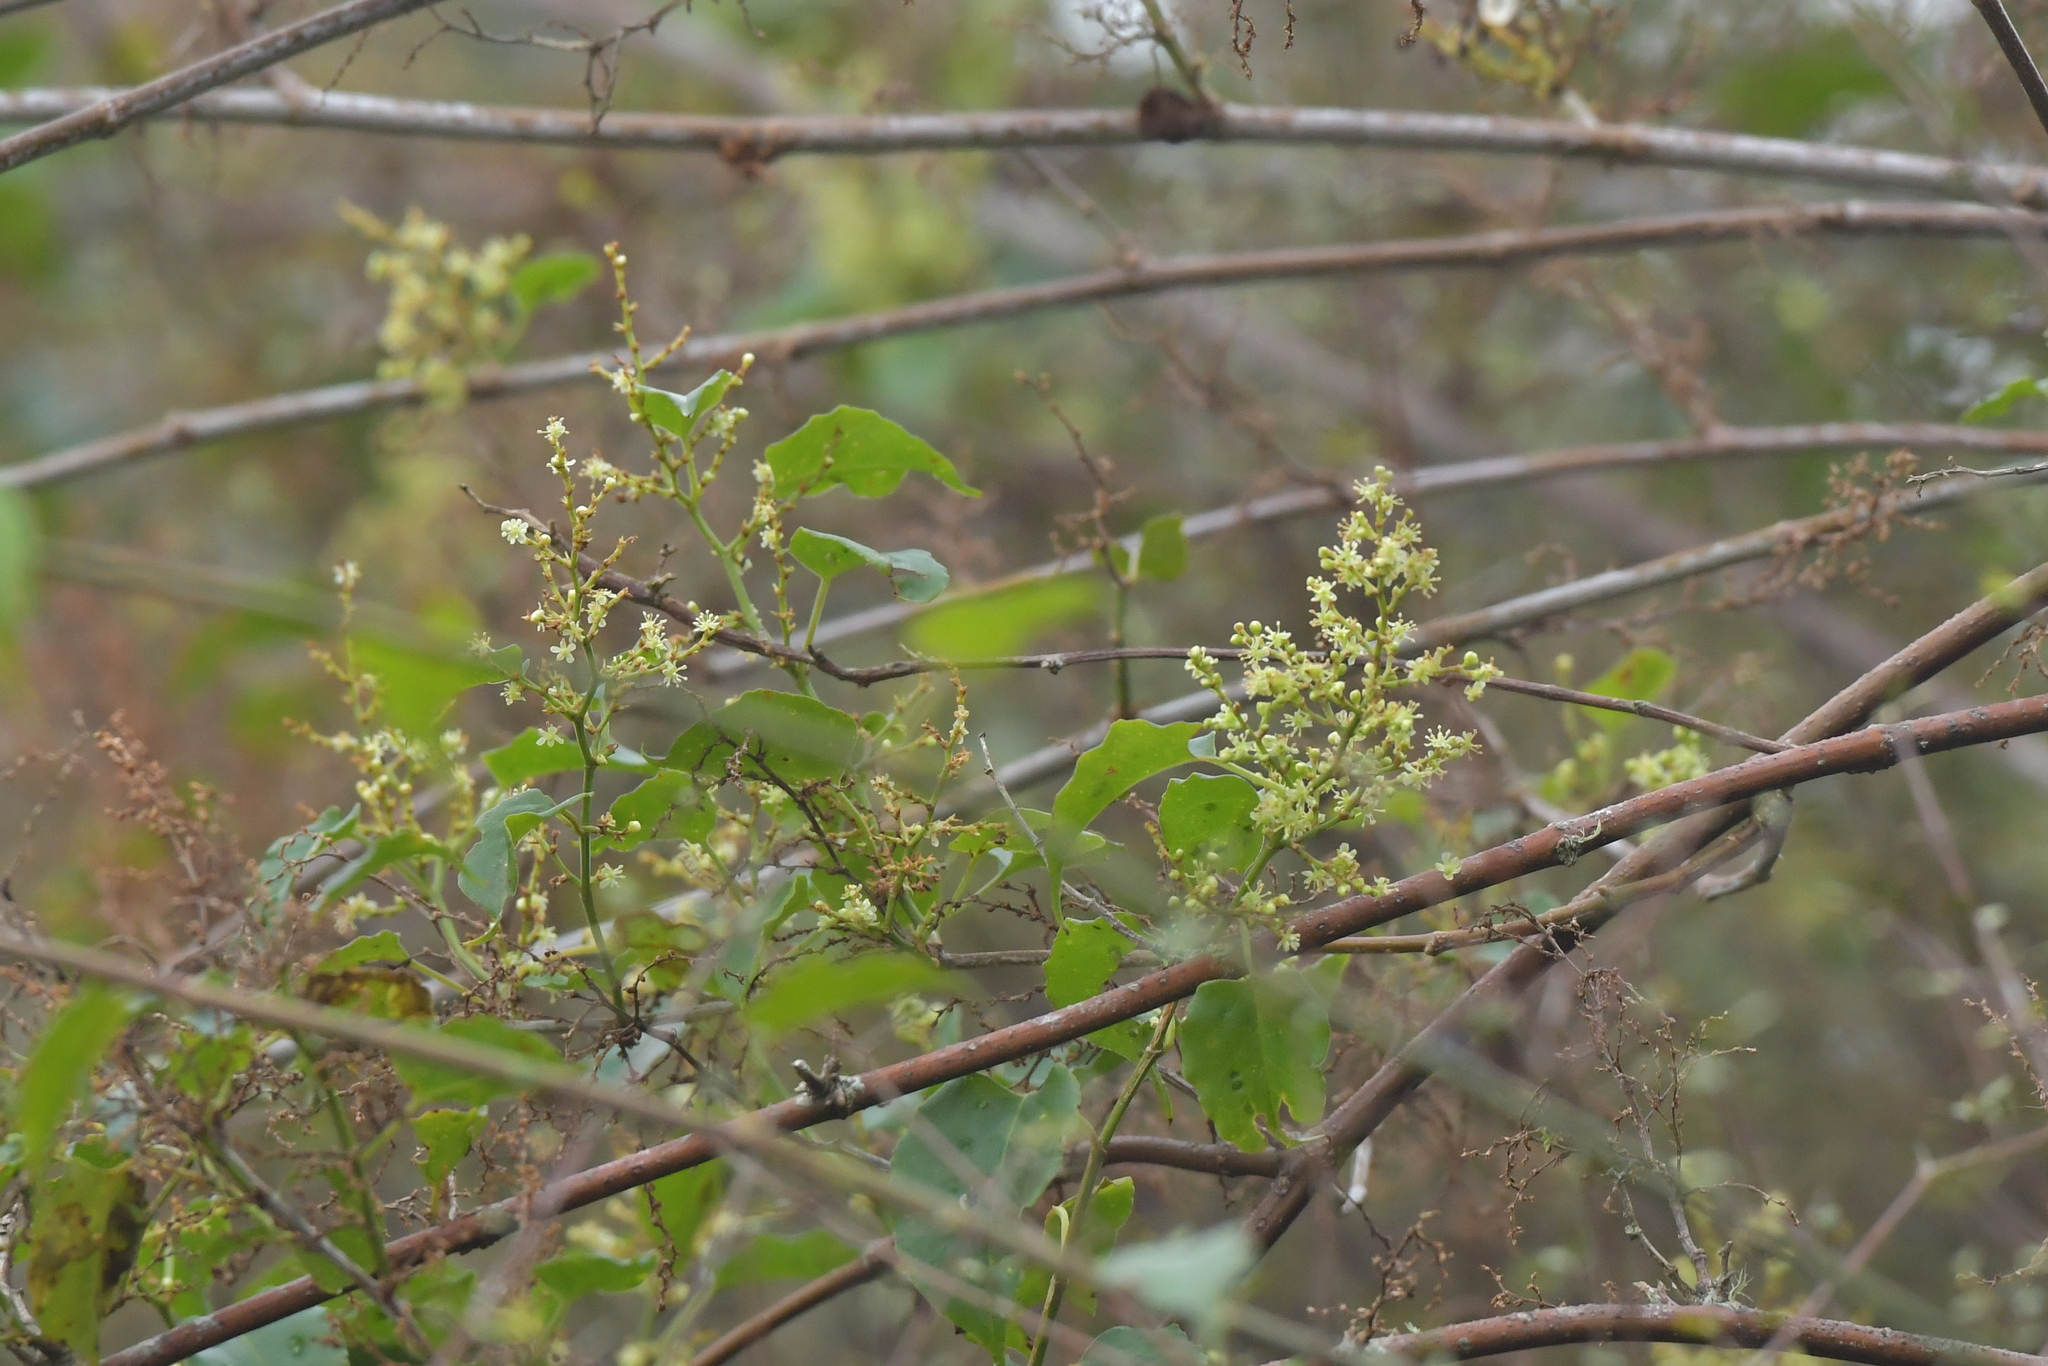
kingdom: Plantae
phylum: Tracheophyta
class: Magnoliopsida
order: Caryophyllales
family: Polygonaceae
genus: Muehlenbeckia
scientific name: Muehlenbeckia australis
